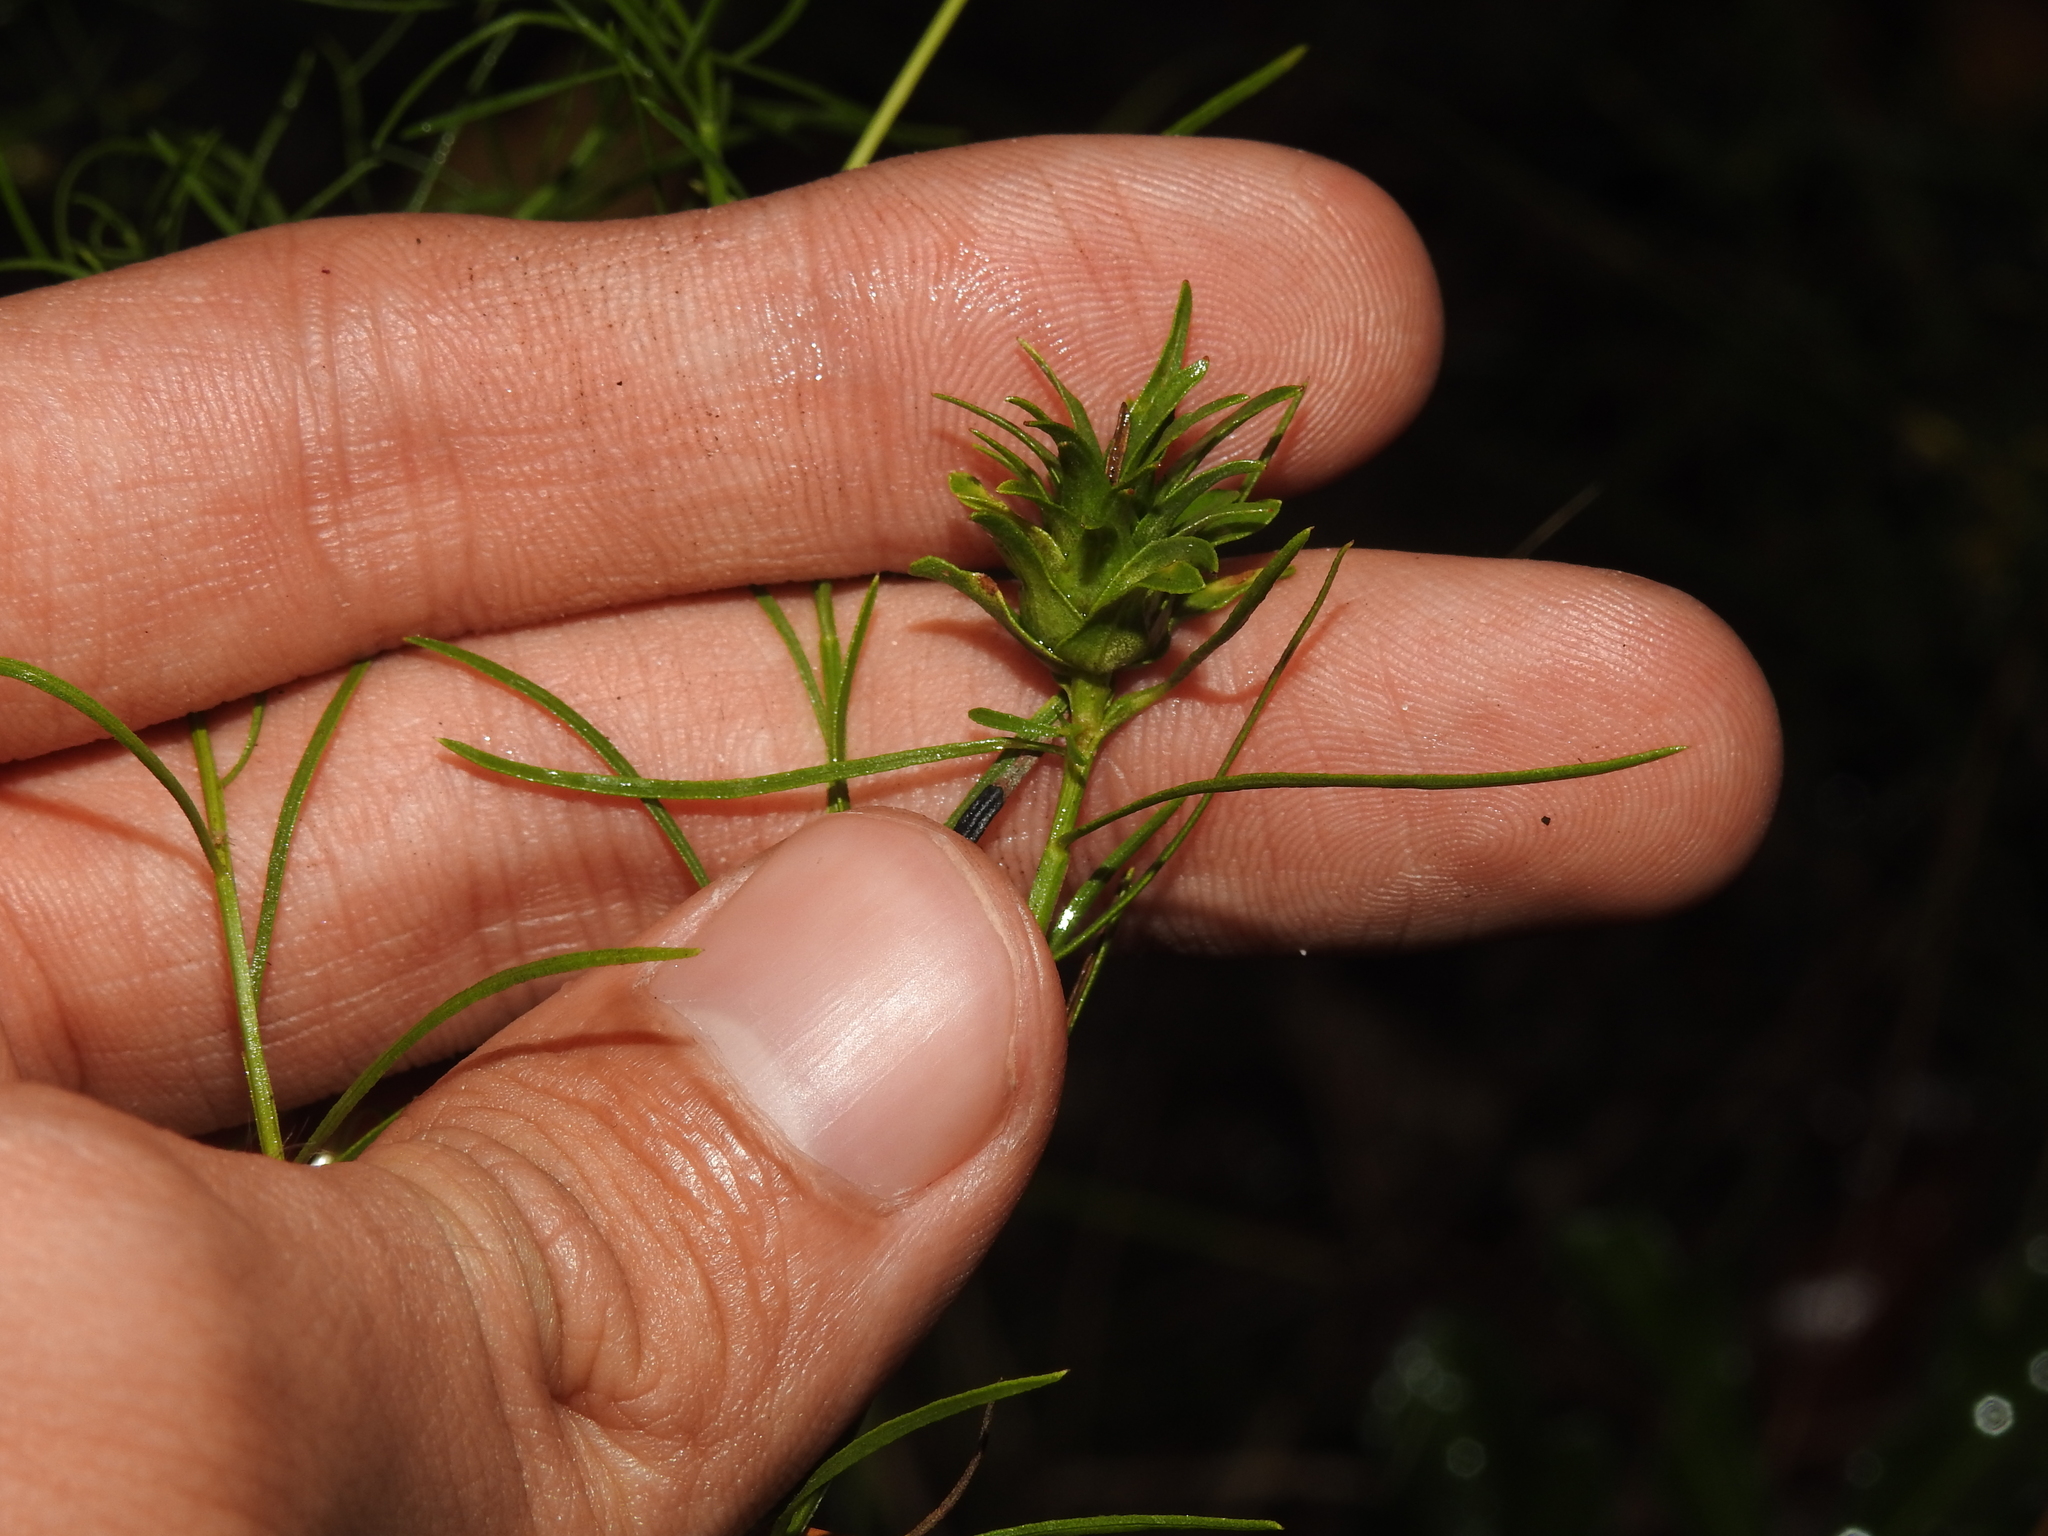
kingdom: Animalia
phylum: Arthropoda
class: Insecta
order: Diptera
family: Cecidomyiidae
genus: Asphondylia
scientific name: Asphondylia pseudorosa
